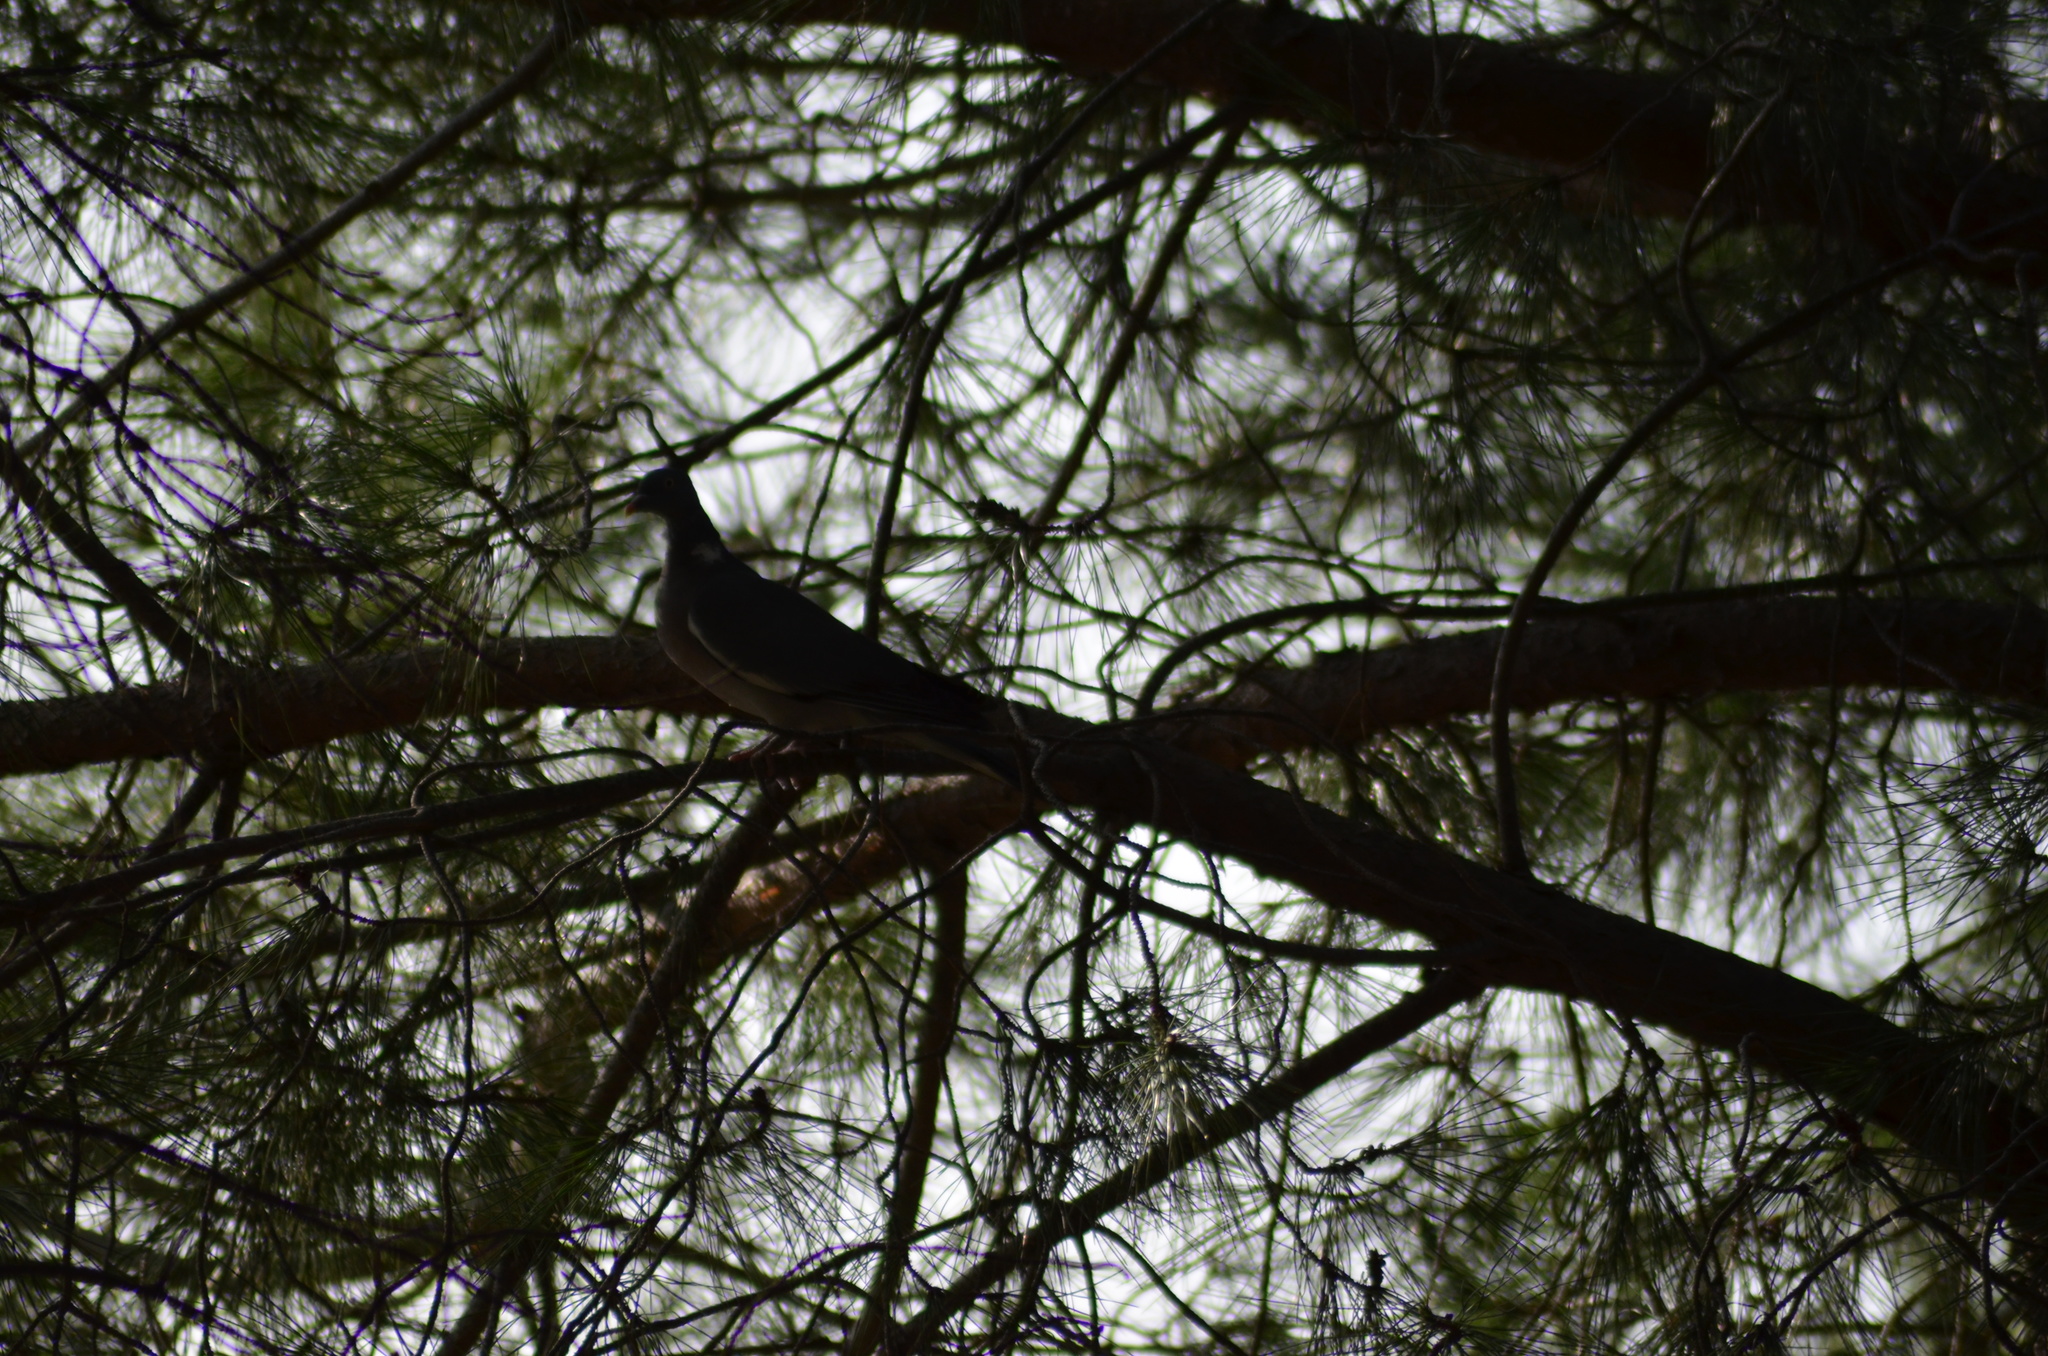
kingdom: Animalia
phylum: Chordata
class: Aves
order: Columbiformes
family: Columbidae
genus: Columba
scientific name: Columba palumbus
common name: Common wood pigeon
